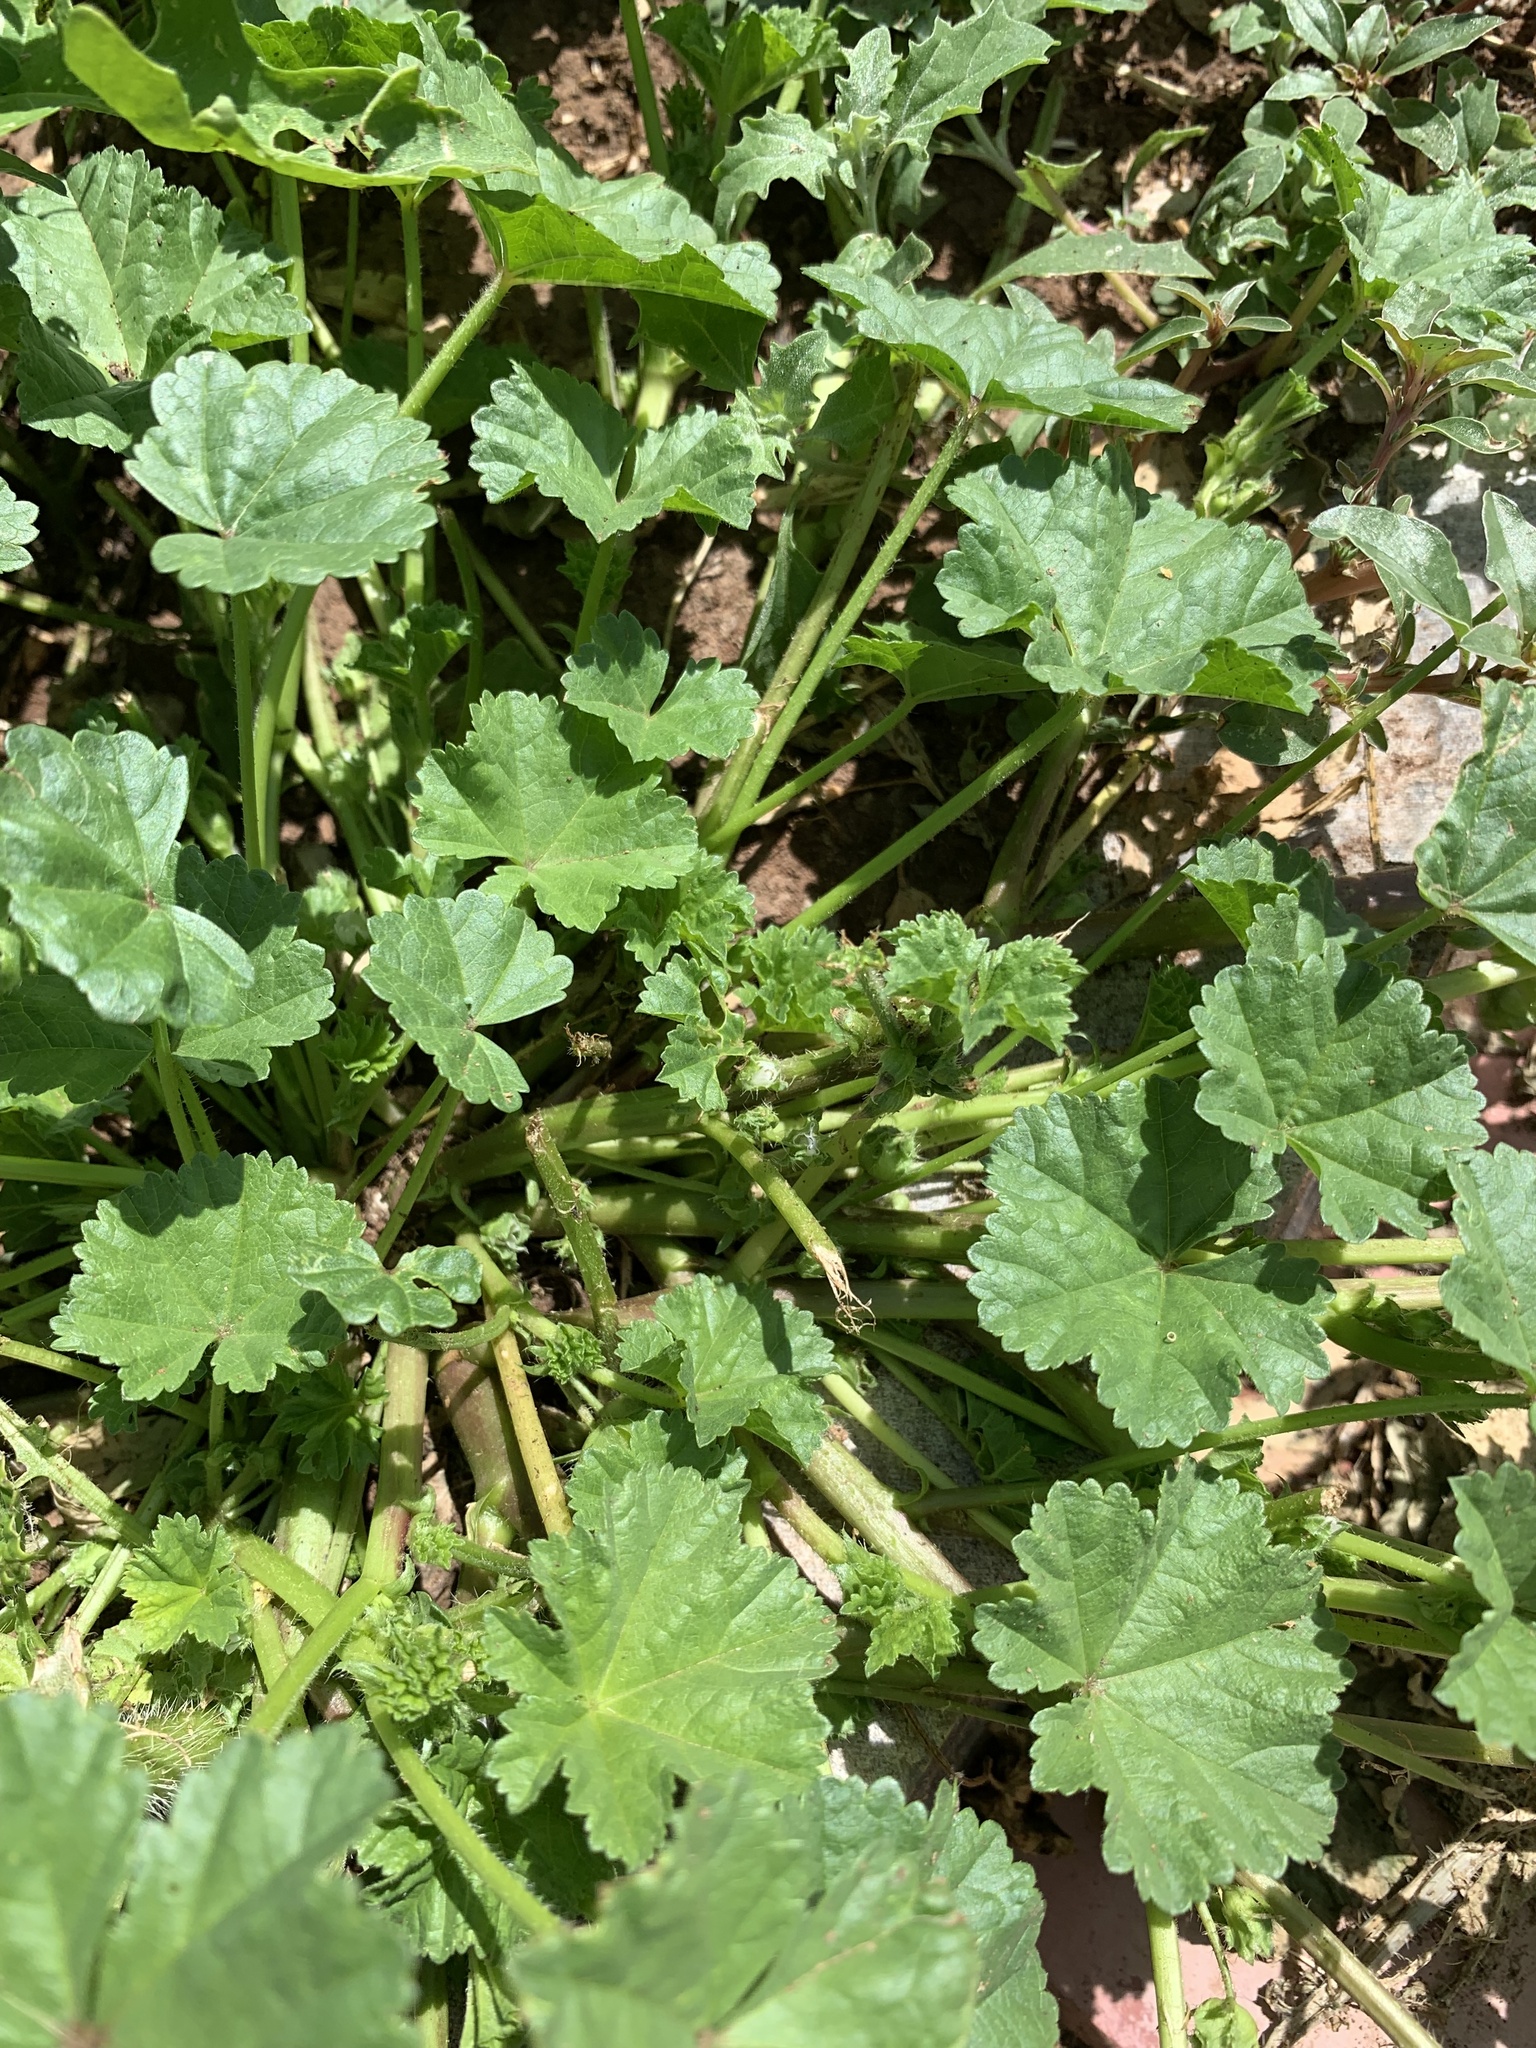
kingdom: Plantae
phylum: Tracheophyta
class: Magnoliopsida
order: Malvales
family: Malvaceae
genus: Malva
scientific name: Malva pusilla
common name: Small mallow
